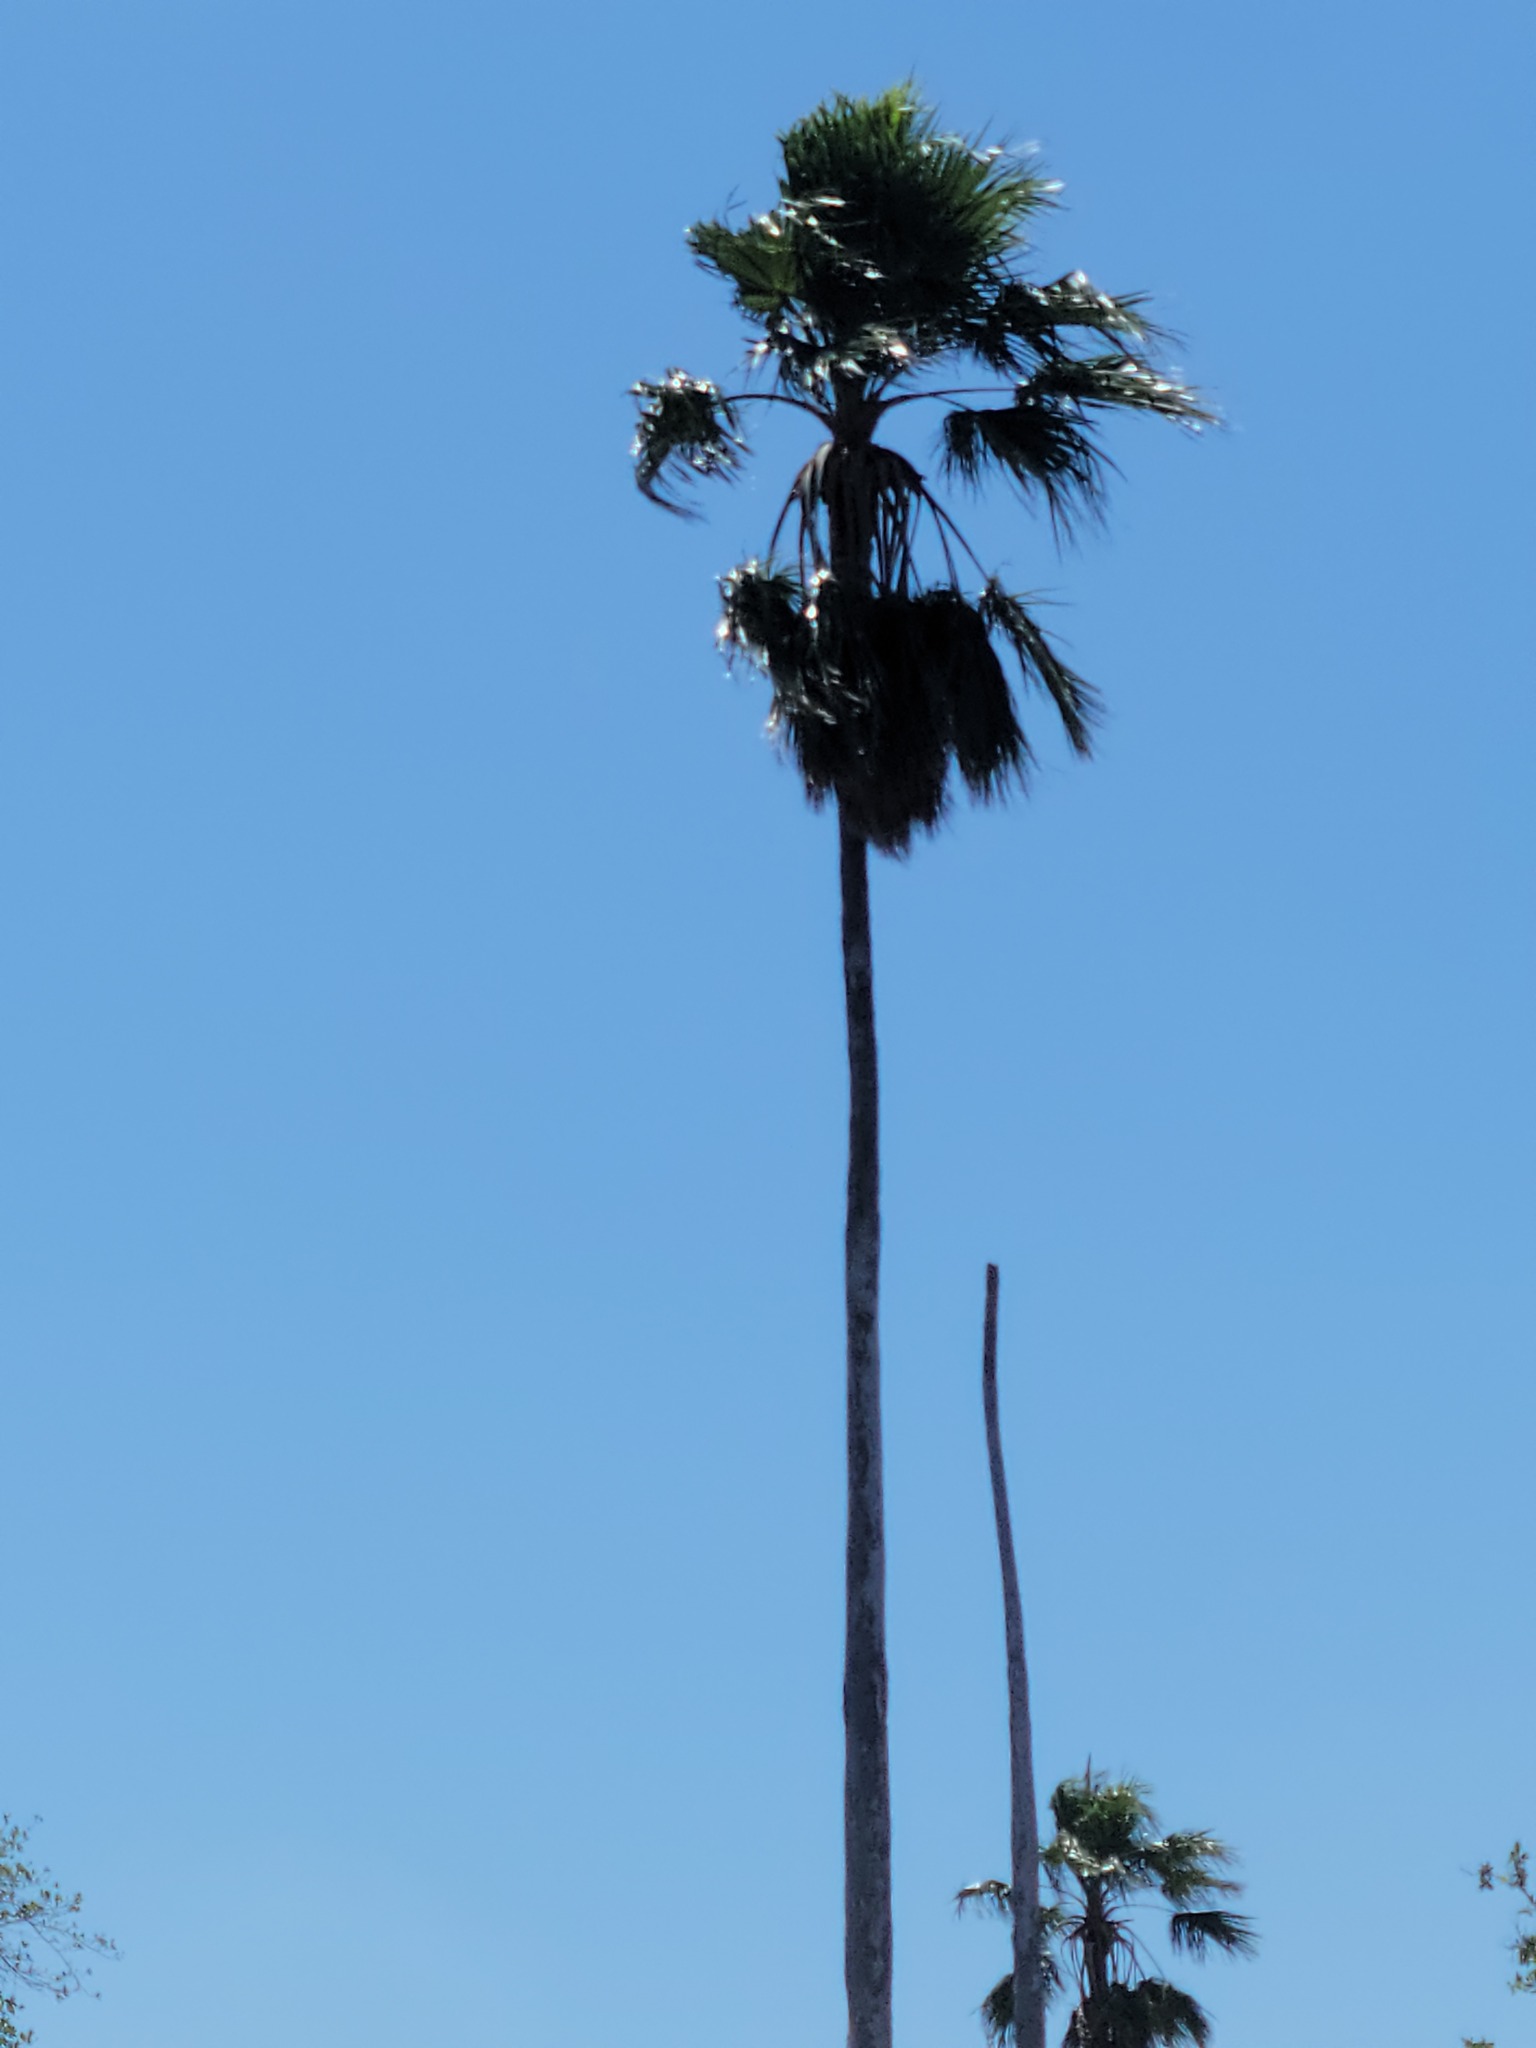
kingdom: Plantae
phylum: Tracheophyta
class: Liliopsida
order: Arecales
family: Arecaceae
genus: Washingtonia
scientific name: Washingtonia robusta
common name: Mexican fan palm
